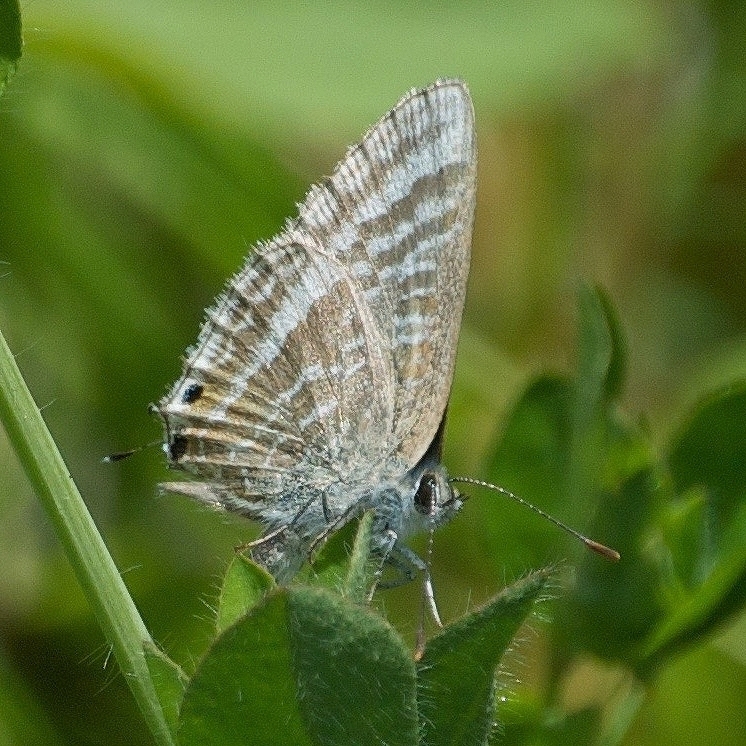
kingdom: Animalia
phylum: Arthropoda
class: Insecta
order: Lepidoptera
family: Lycaenidae
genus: Lampides
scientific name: Lampides boeticus
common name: Long-tailed blue
